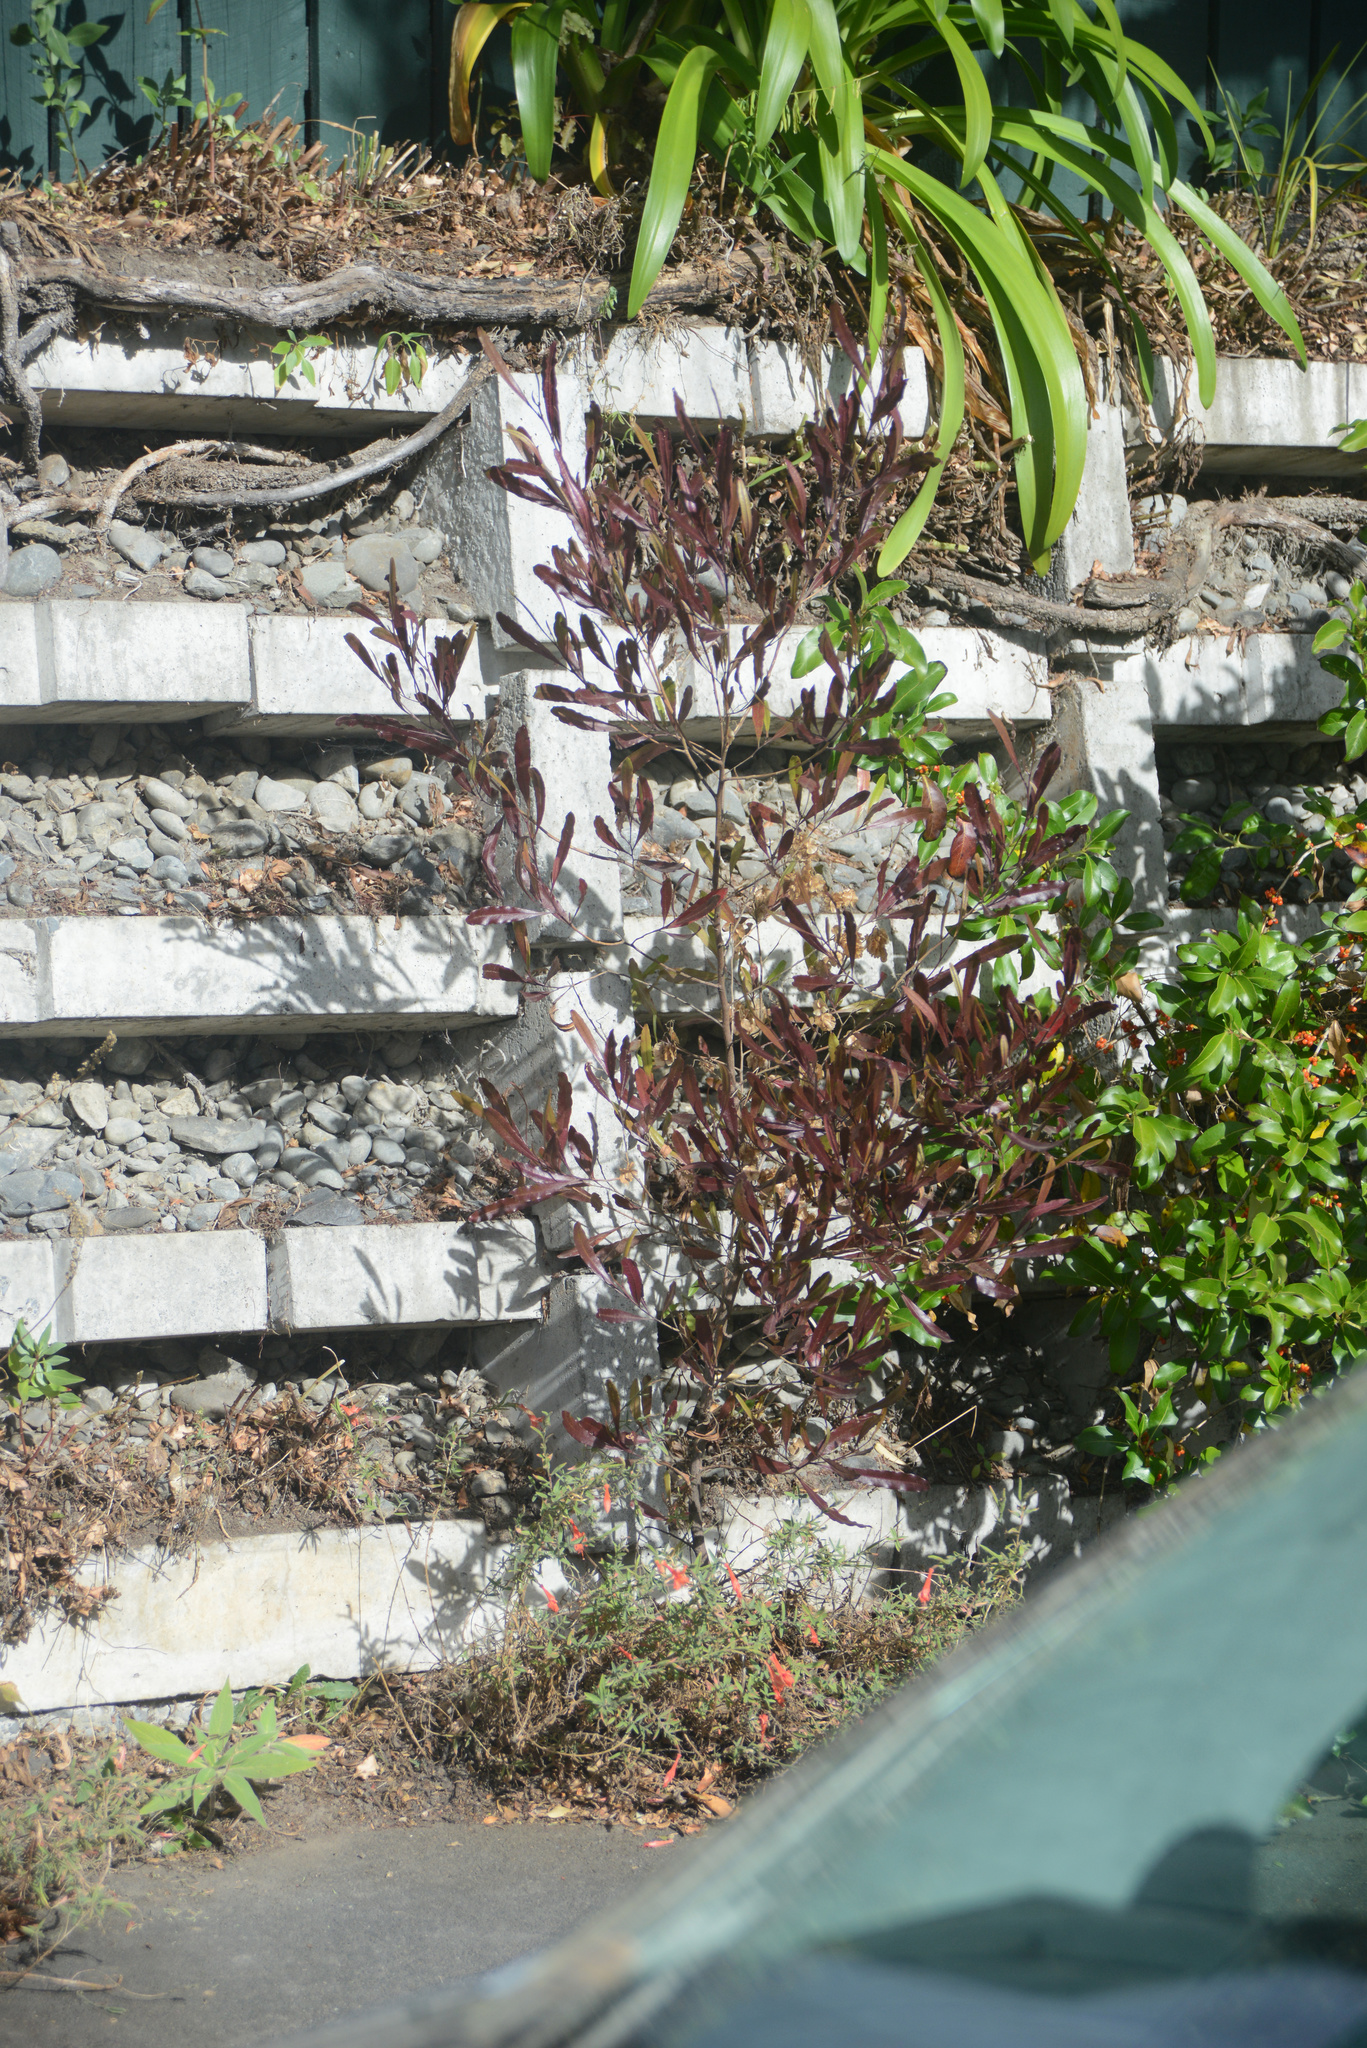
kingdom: Plantae
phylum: Tracheophyta
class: Magnoliopsida
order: Sapindales
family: Sapindaceae
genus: Dodonaea
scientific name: Dodonaea viscosa
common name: Hopbush
